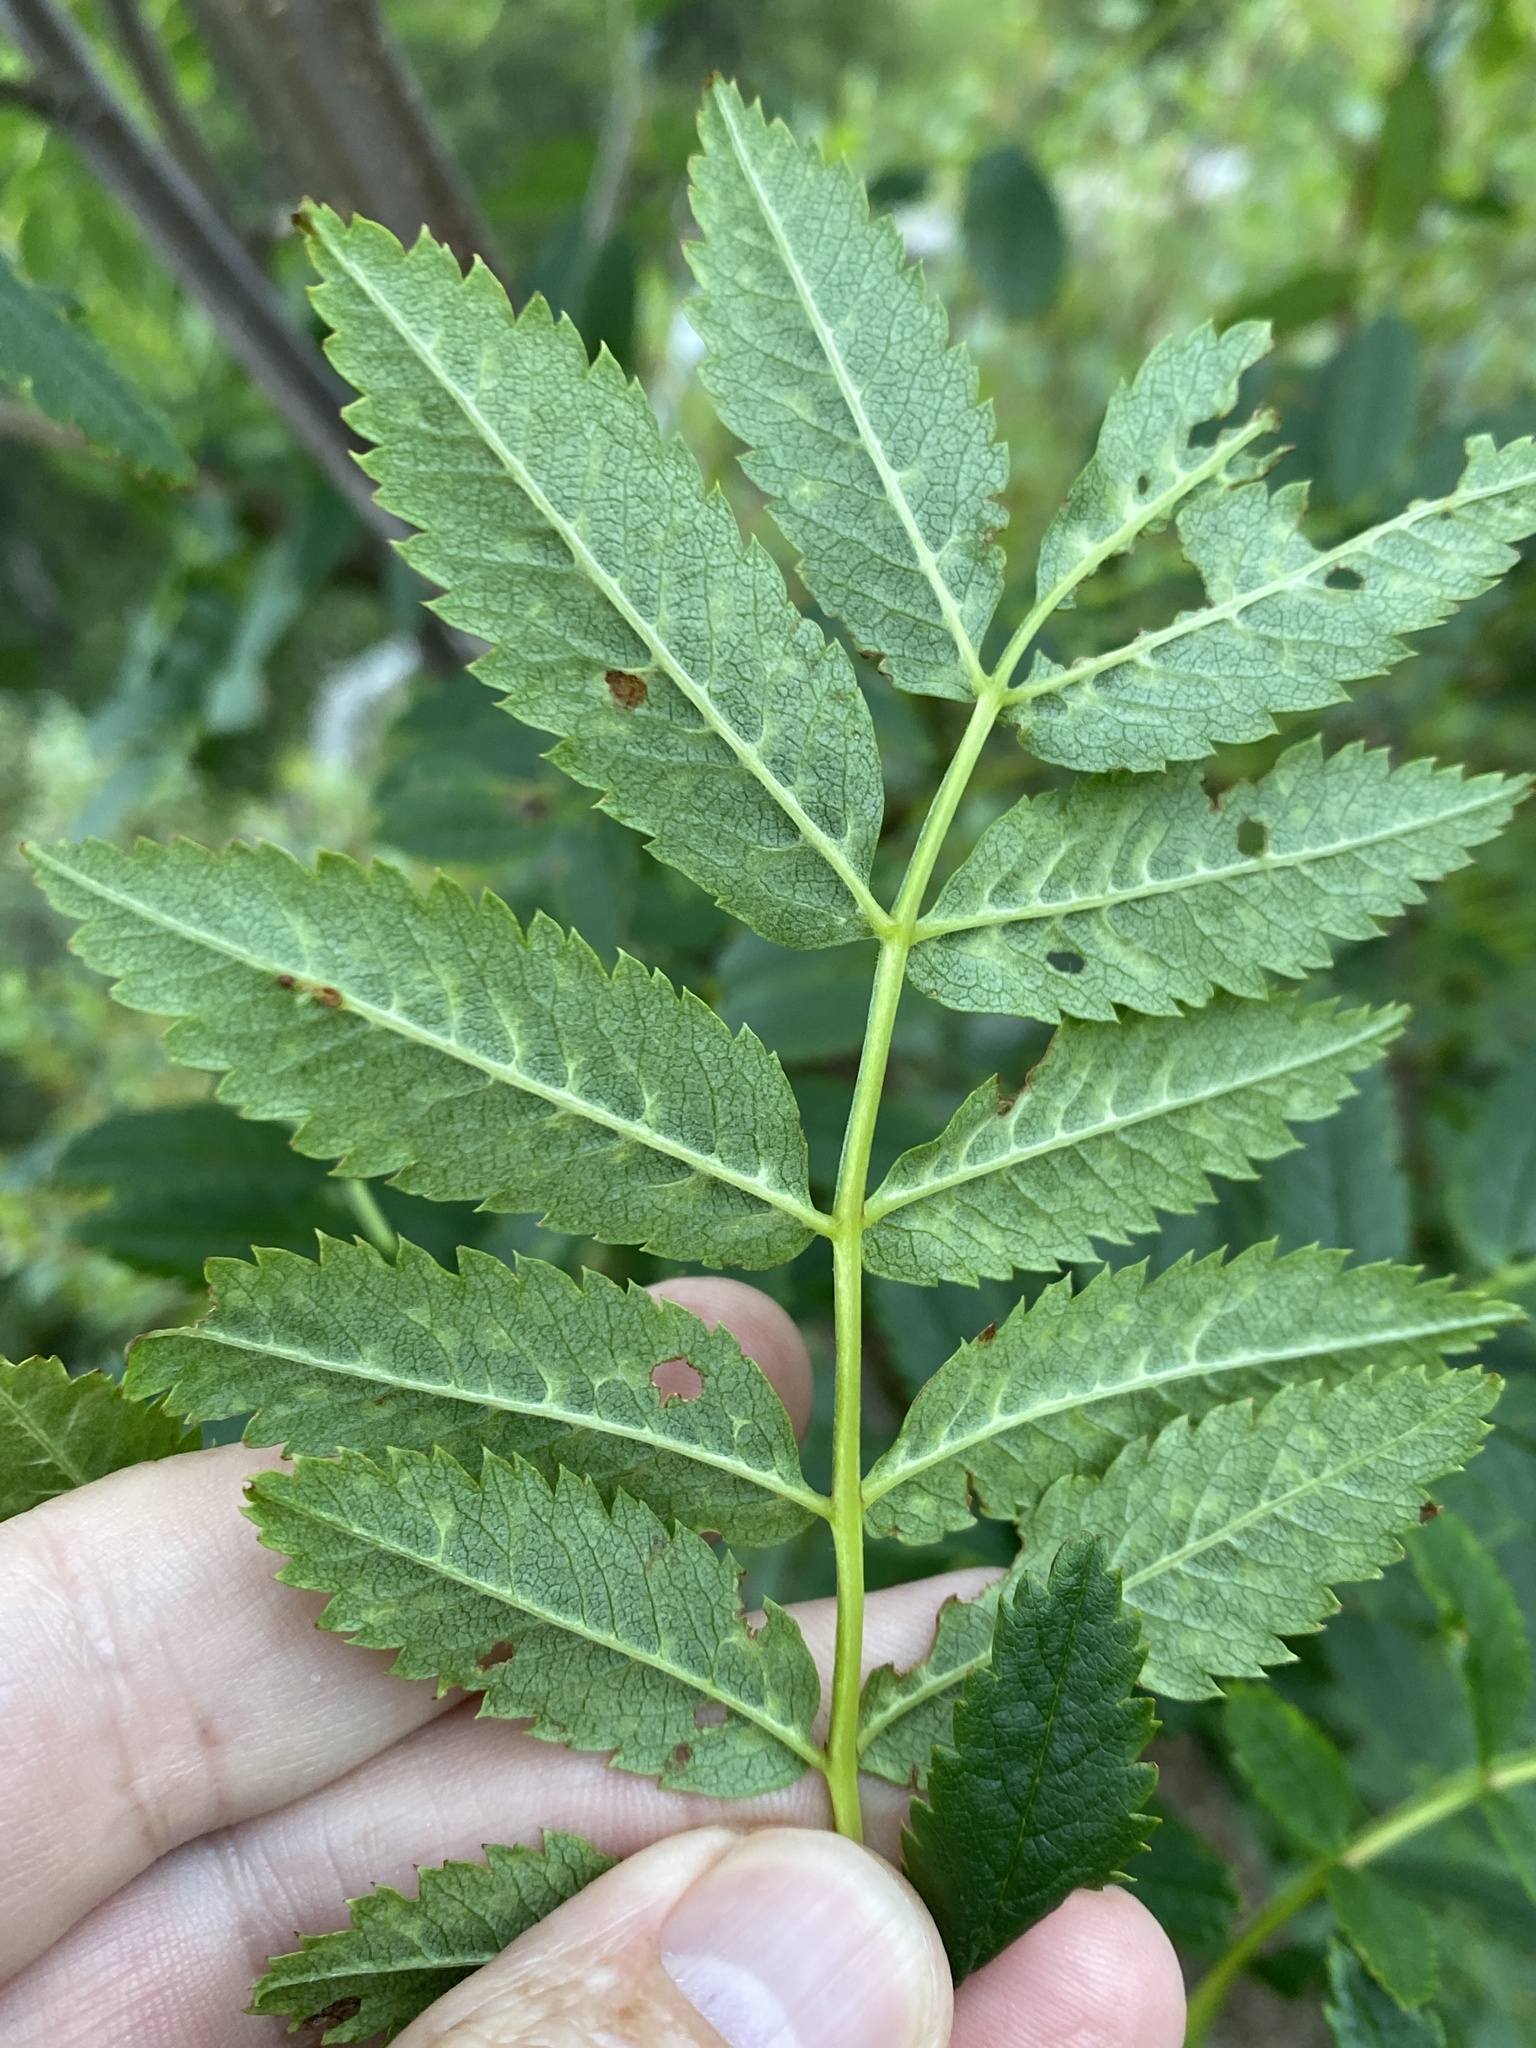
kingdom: Plantae
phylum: Tracheophyta
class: Magnoliopsida
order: Rosales
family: Rosaceae
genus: Sorbus
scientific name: Sorbus aucuparia
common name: Rowan
